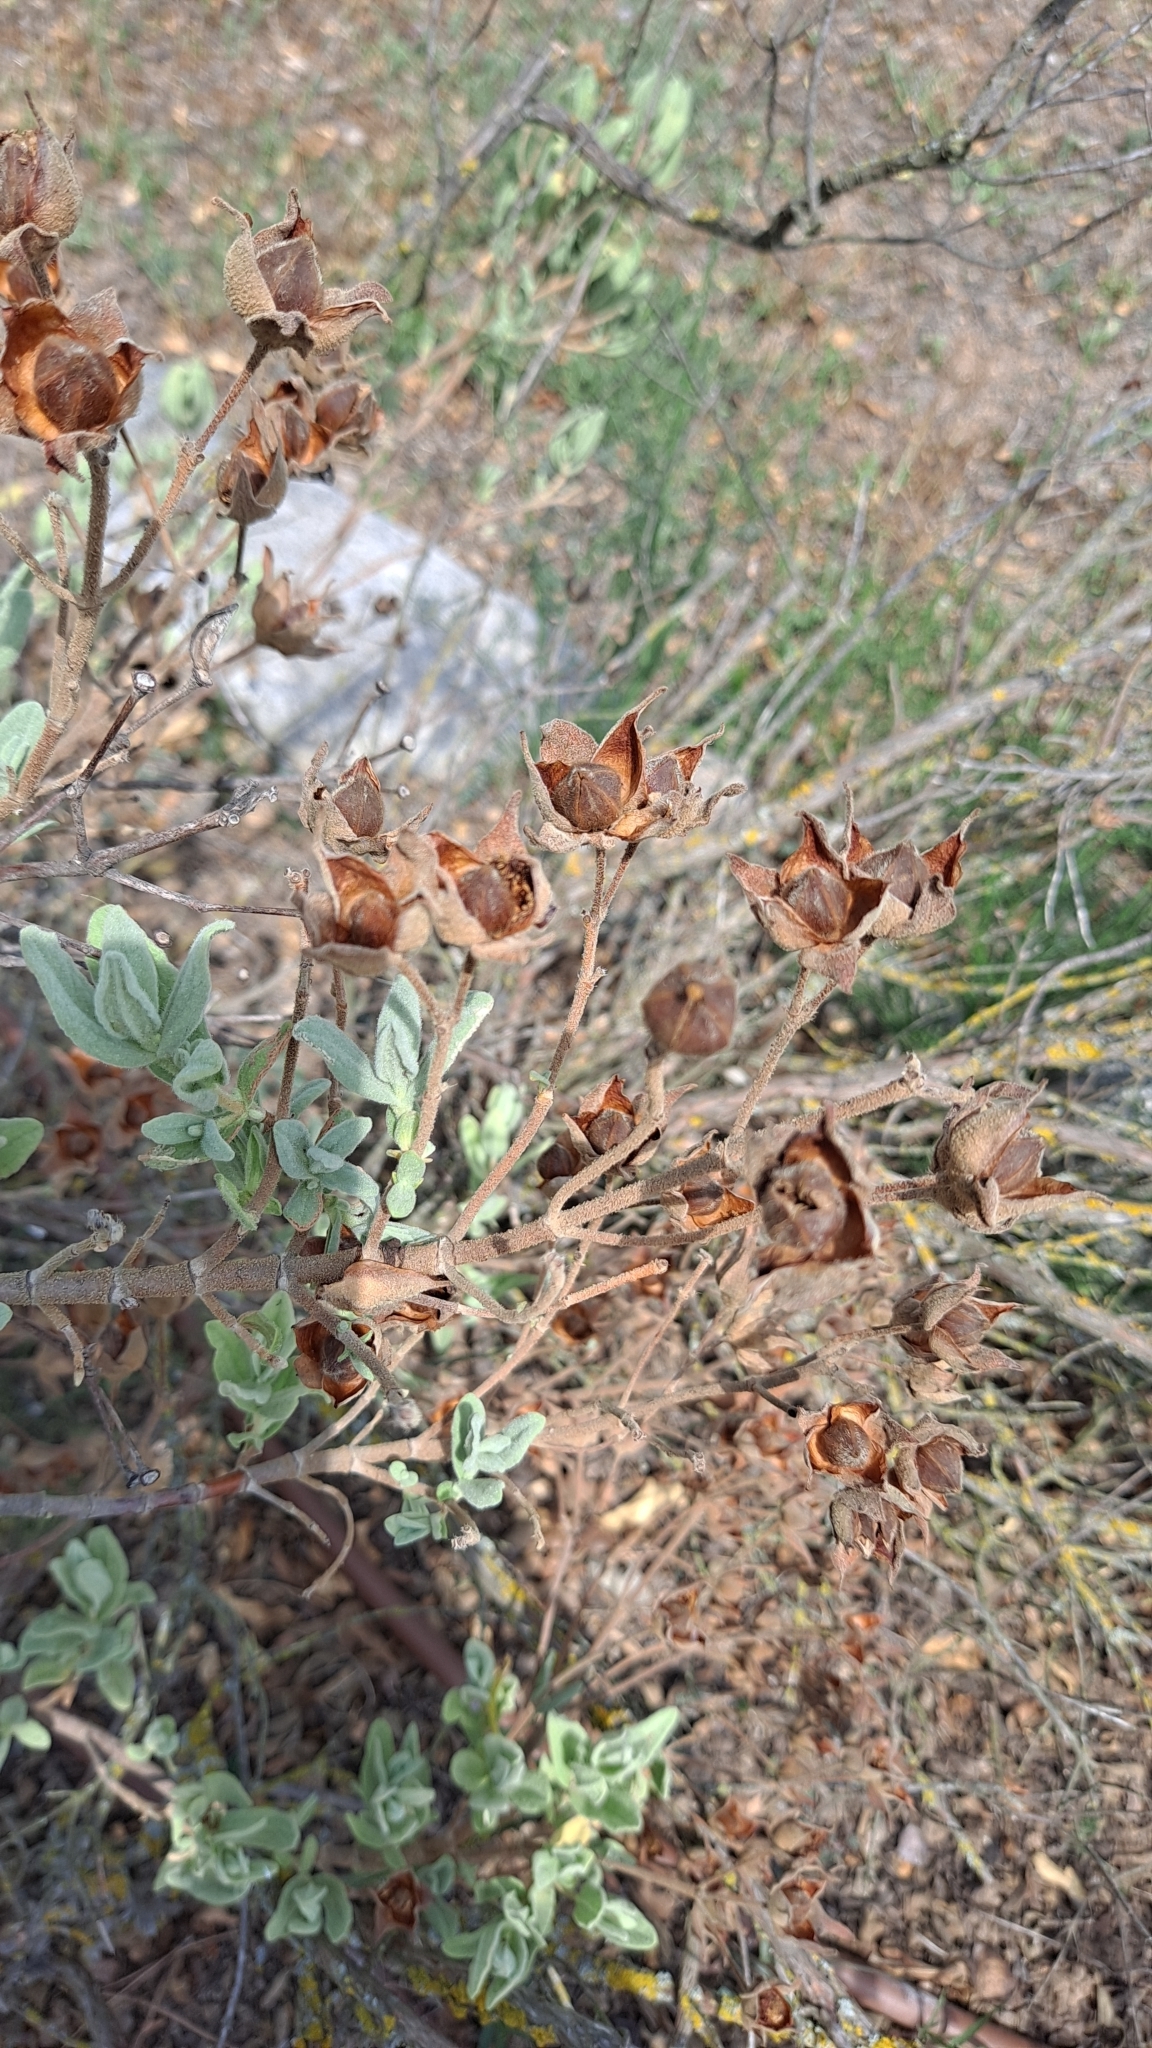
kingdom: Plantae
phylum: Tracheophyta
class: Magnoliopsida
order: Malvales
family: Cistaceae
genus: Cistus
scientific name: Cistus albidus
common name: White-leaf rock-rose
